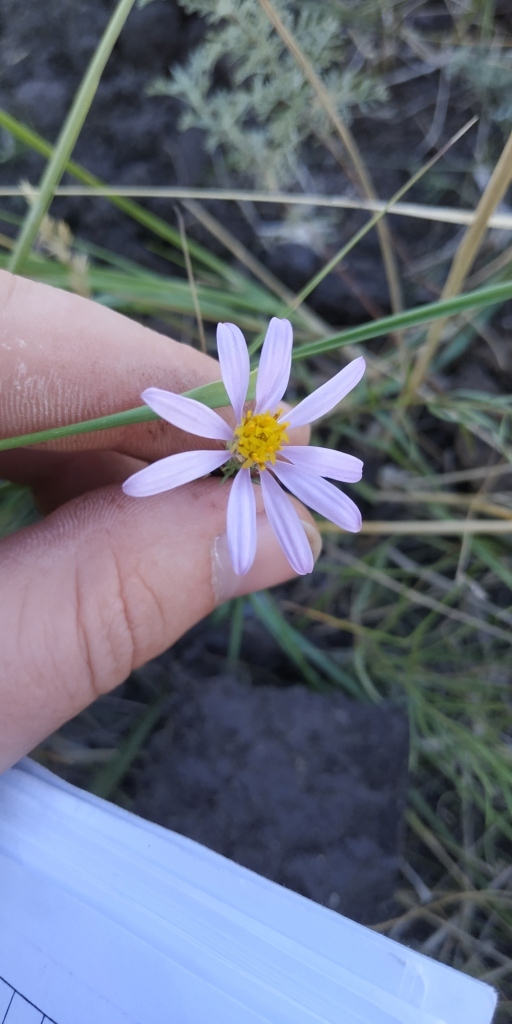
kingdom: Plantae
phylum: Tracheophyta
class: Magnoliopsida
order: Asterales
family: Asteraceae
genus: Galatella
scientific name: Galatella angustissima
